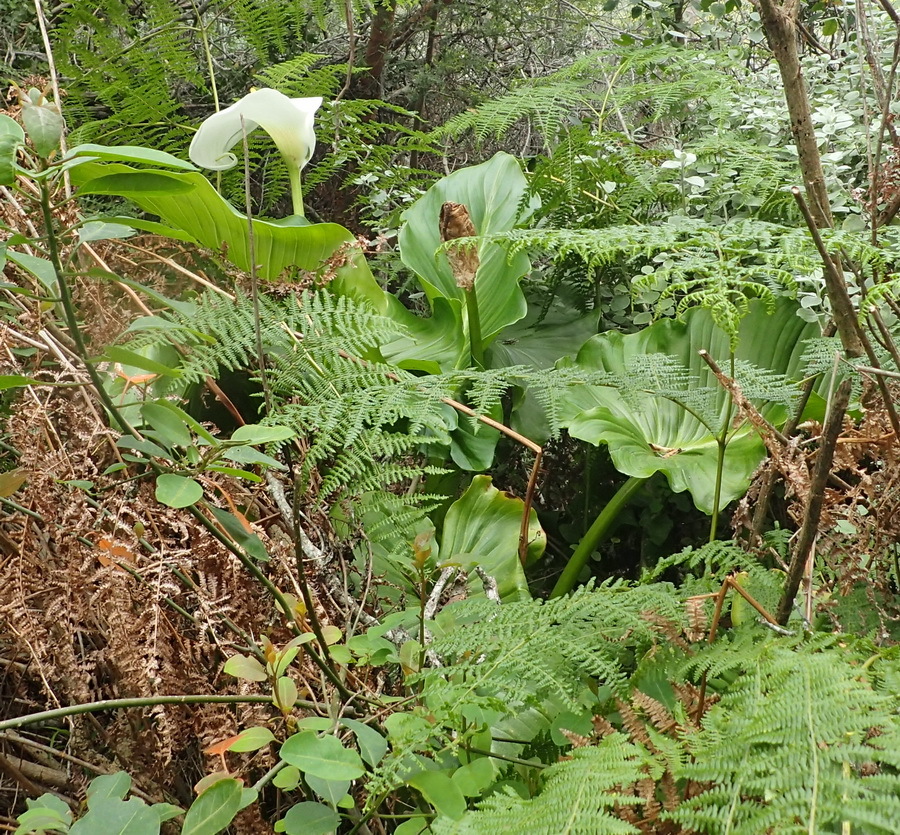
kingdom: Plantae
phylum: Tracheophyta
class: Liliopsida
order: Alismatales
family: Araceae
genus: Zantedeschia
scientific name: Zantedeschia aethiopica
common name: Altar-lily
